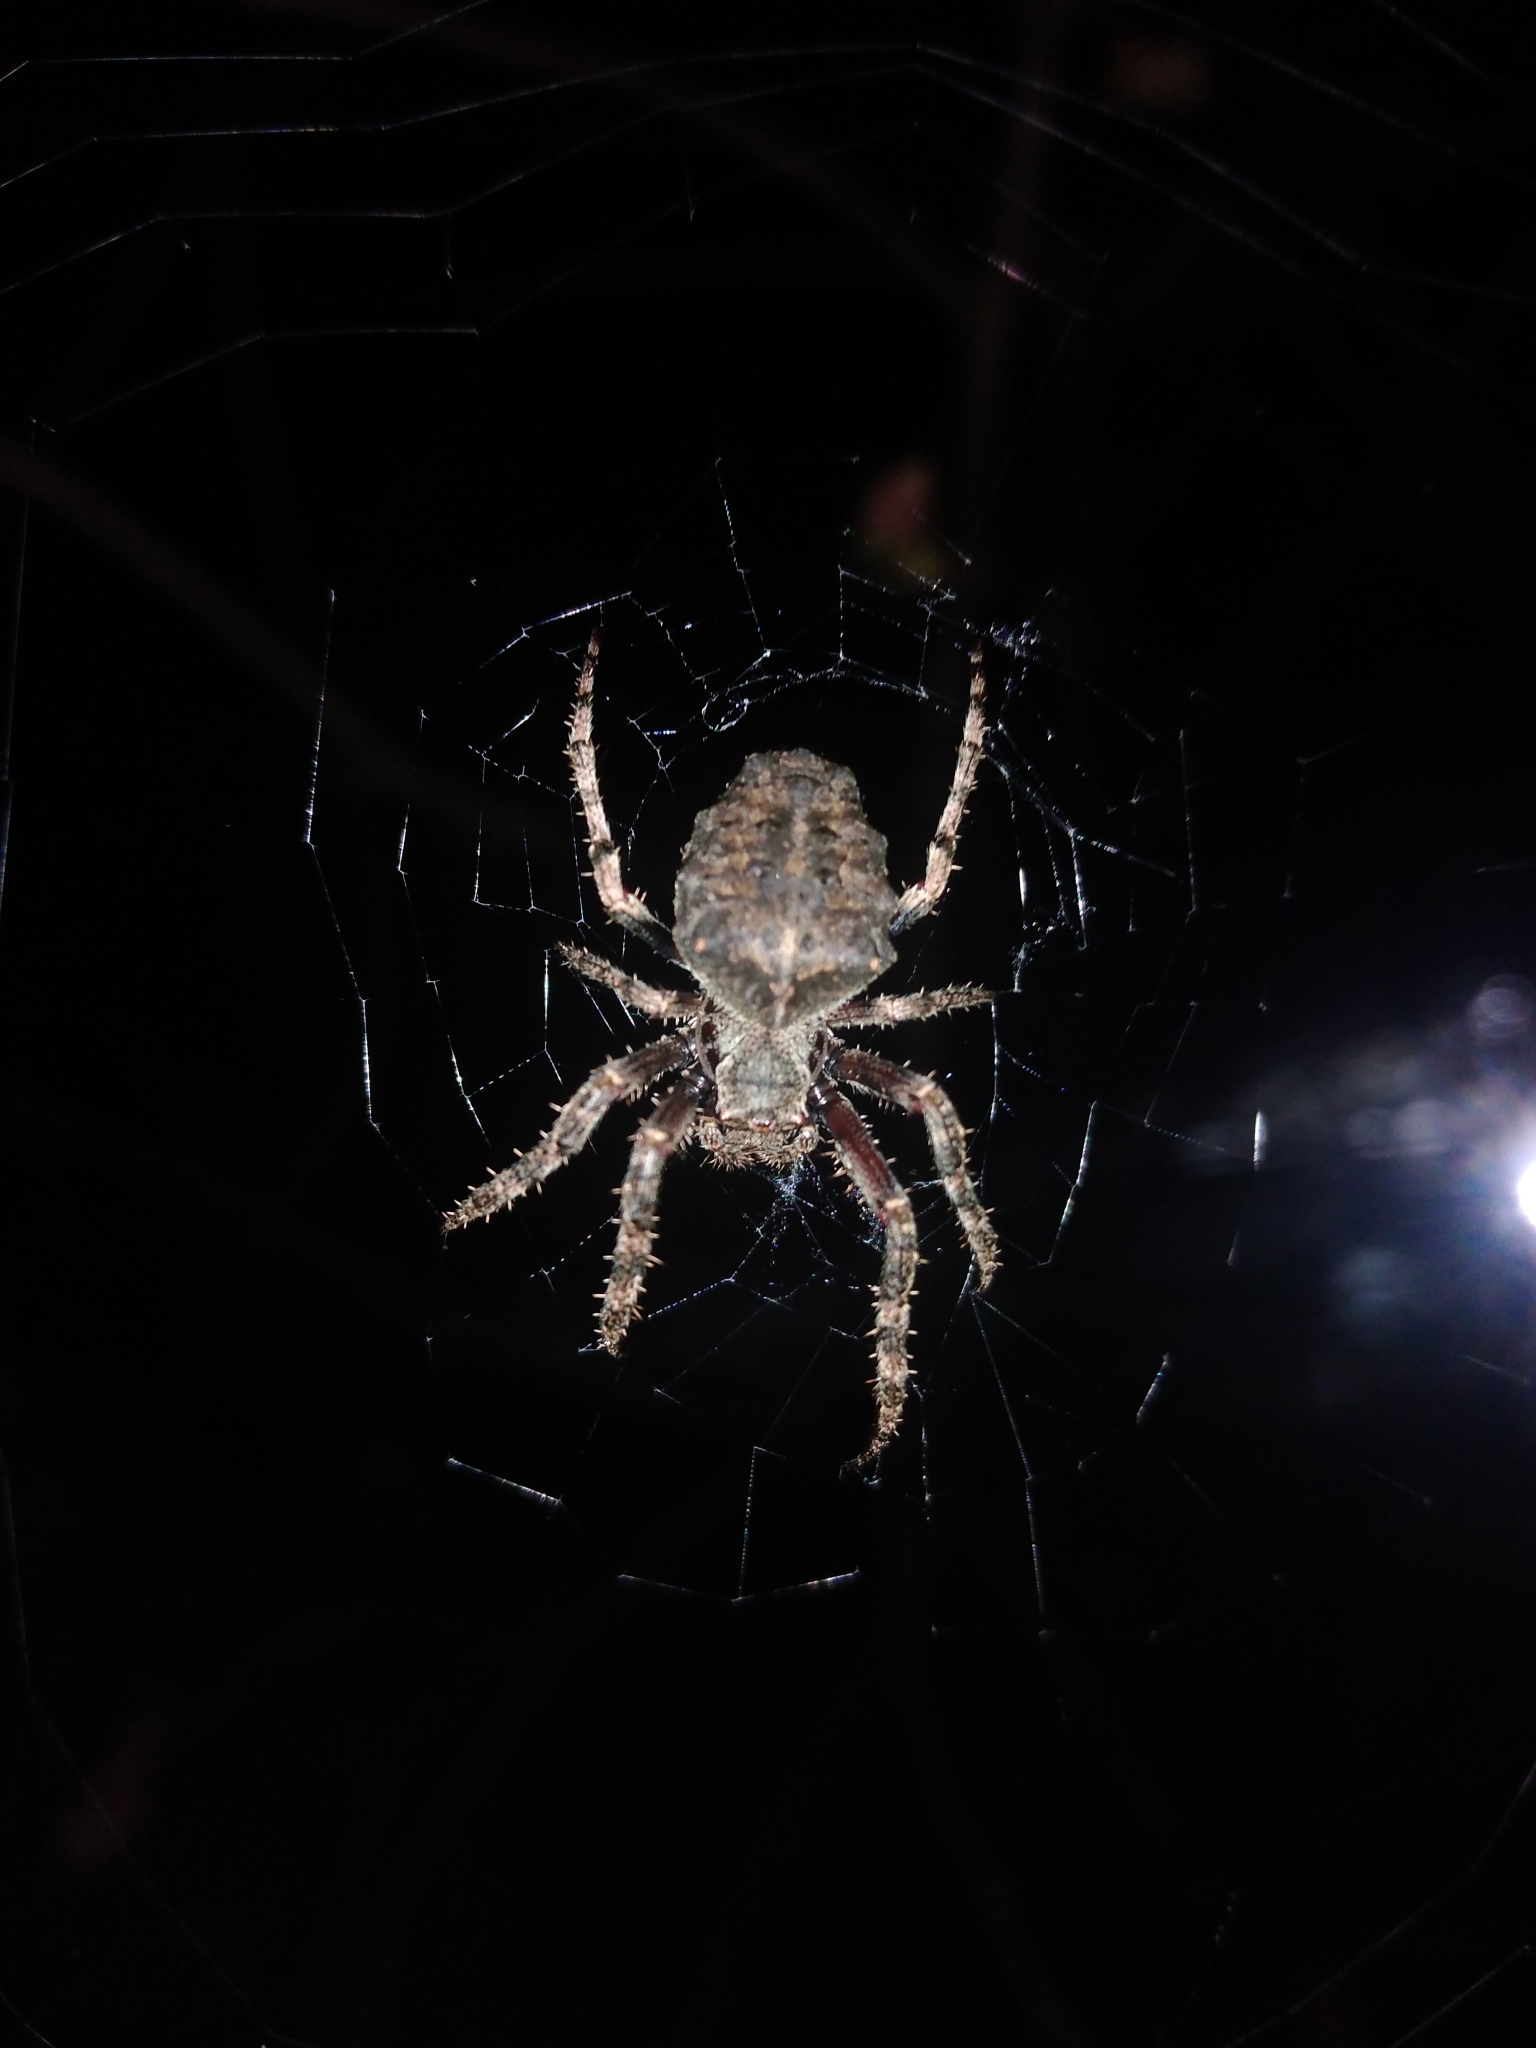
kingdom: Animalia
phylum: Arthropoda
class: Arachnida
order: Araneae
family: Araneidae
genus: Parawixia
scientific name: Parawixia audax
